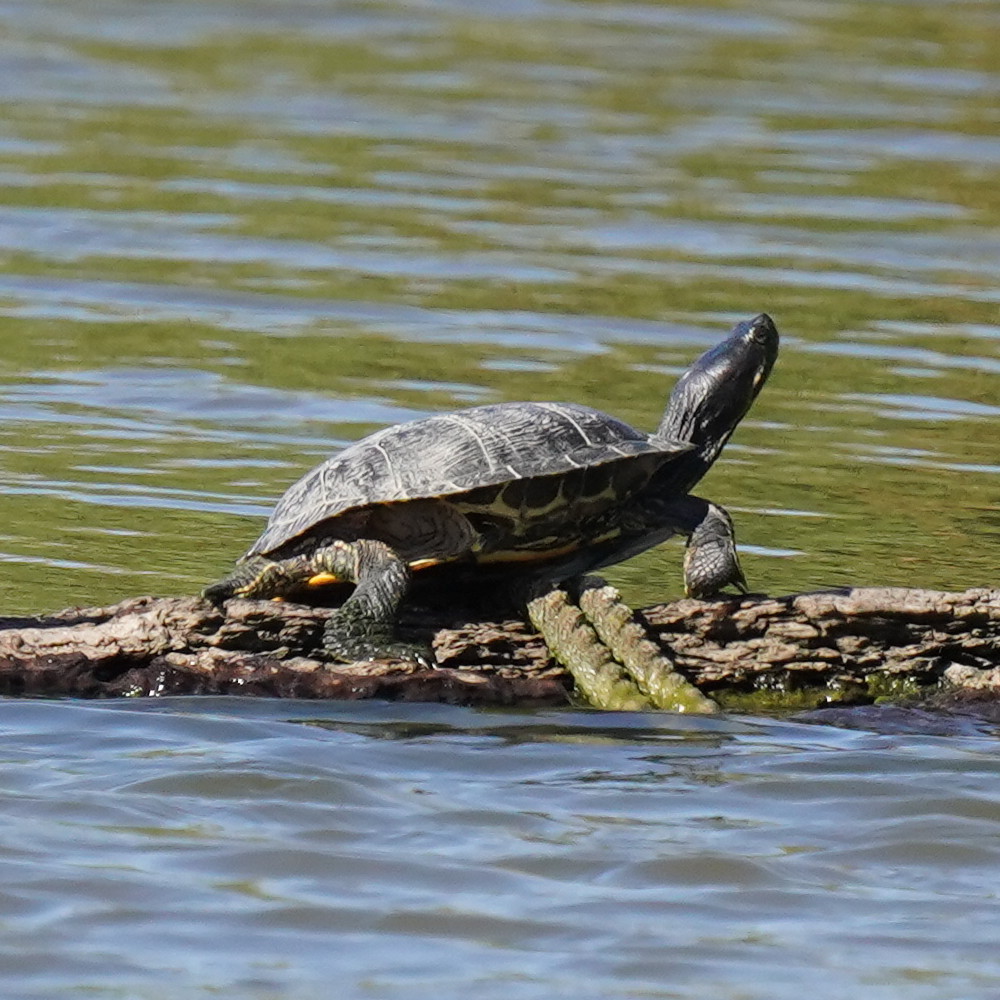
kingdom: Animalia
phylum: Chordata
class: Testudines
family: Emydidae
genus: Trachemys
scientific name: Trachemys scripta
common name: Slider
